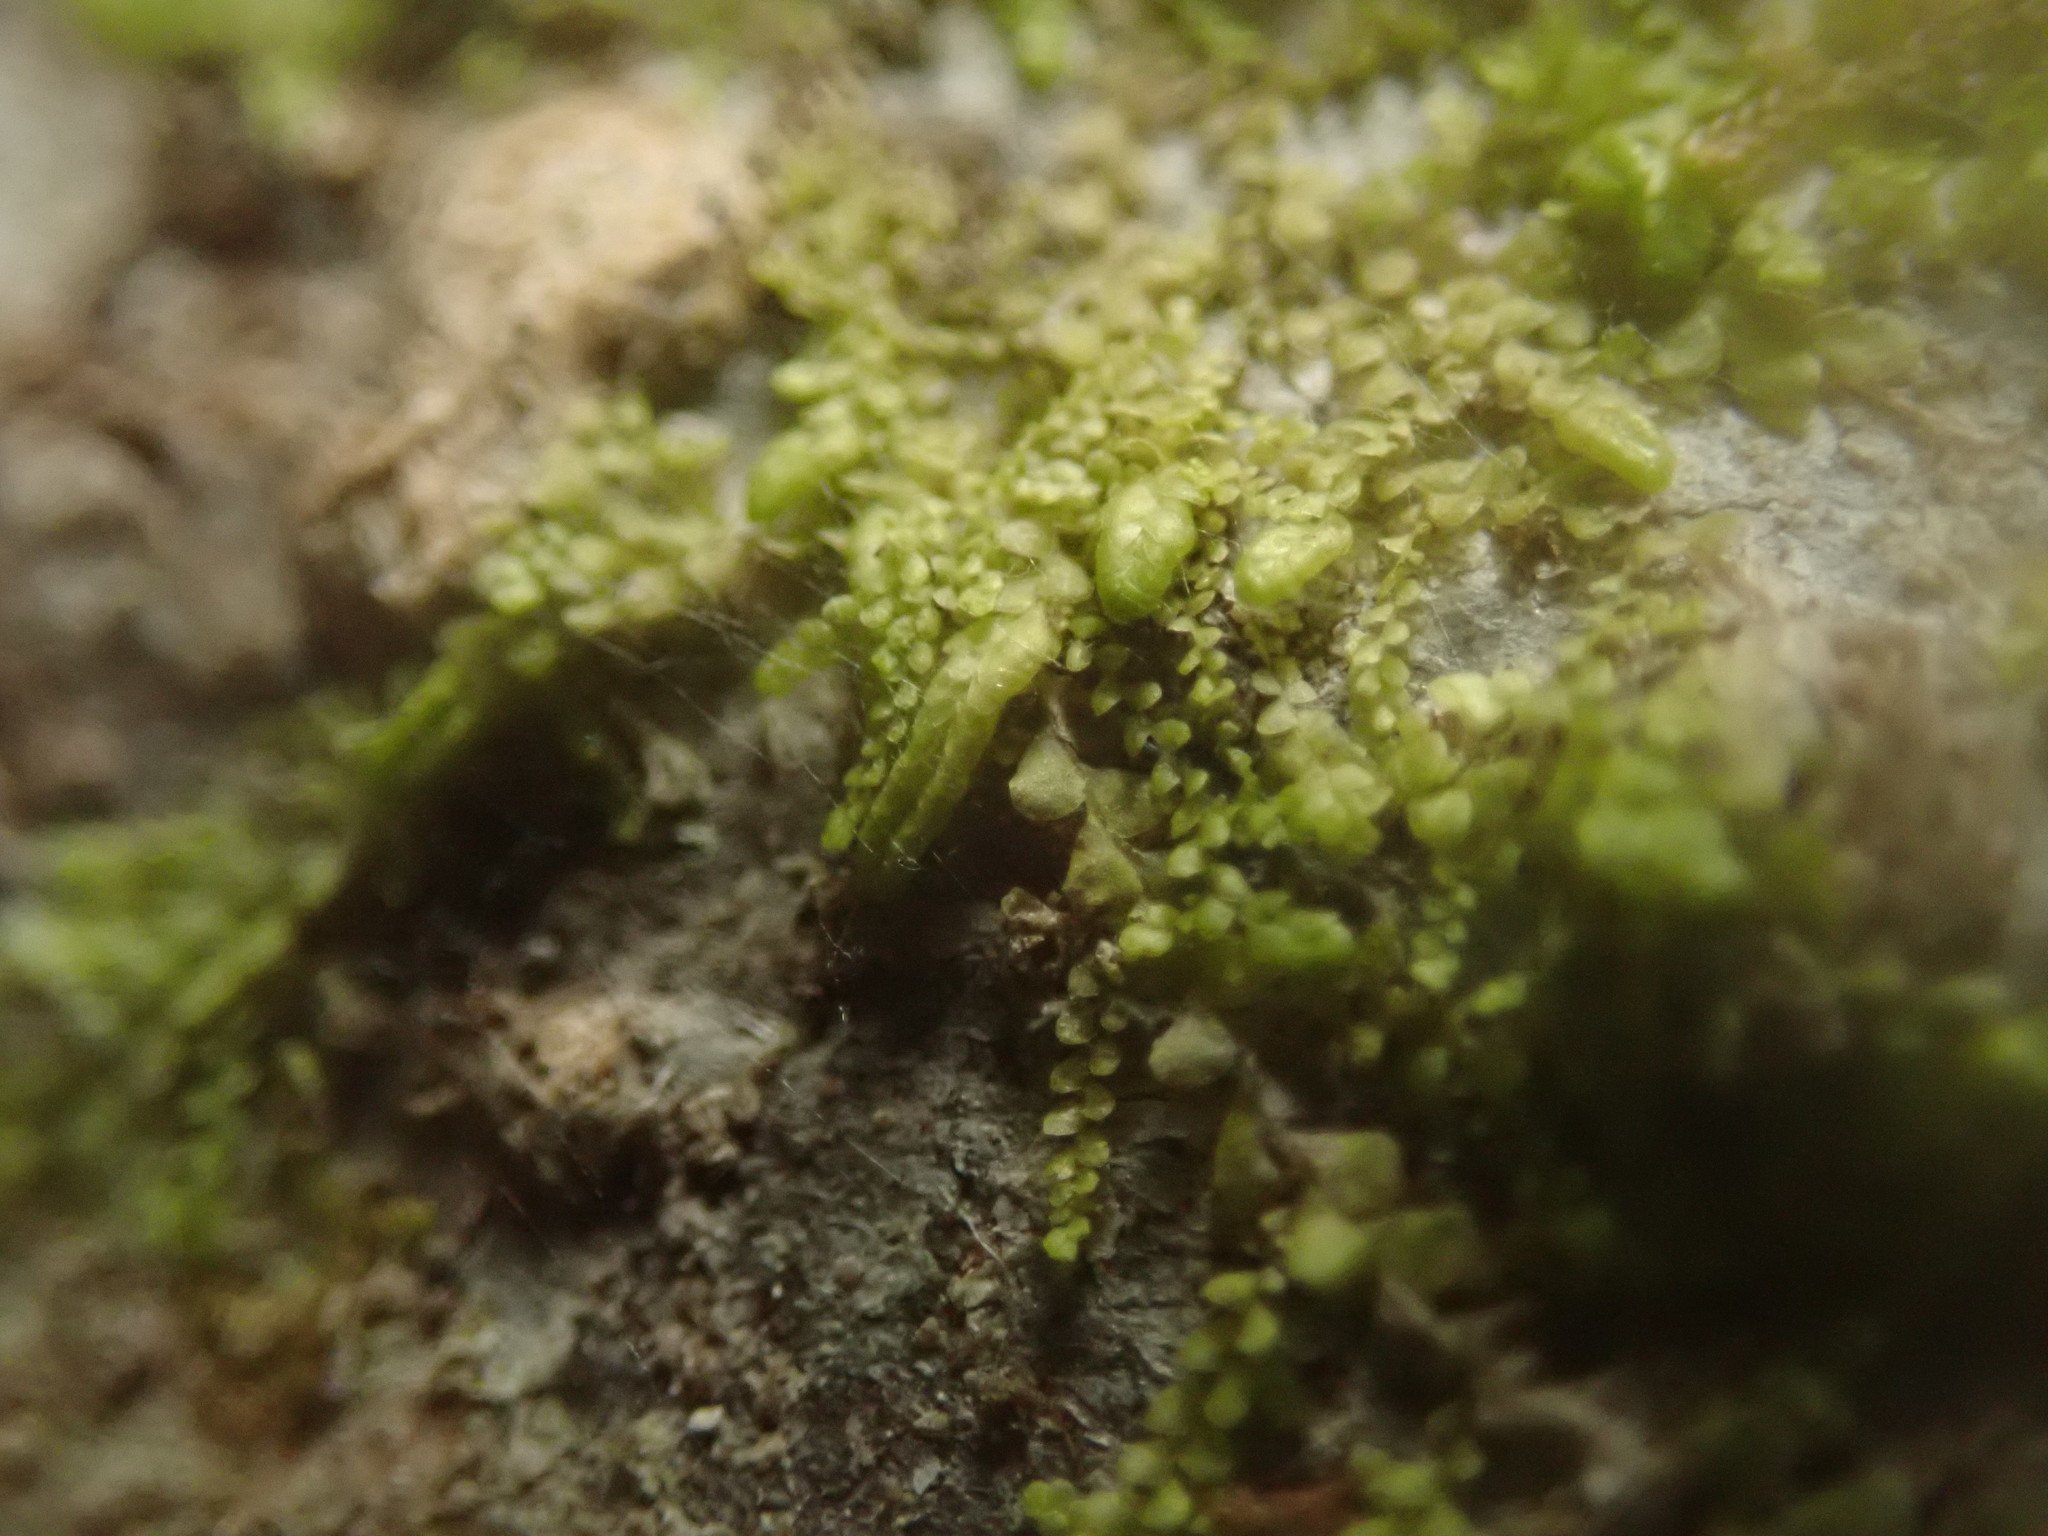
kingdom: Plantae
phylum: Marchantiophyta
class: Jungermanniopsida
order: Porellales
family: Radulaceae
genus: Radula
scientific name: Radula bolanderi
